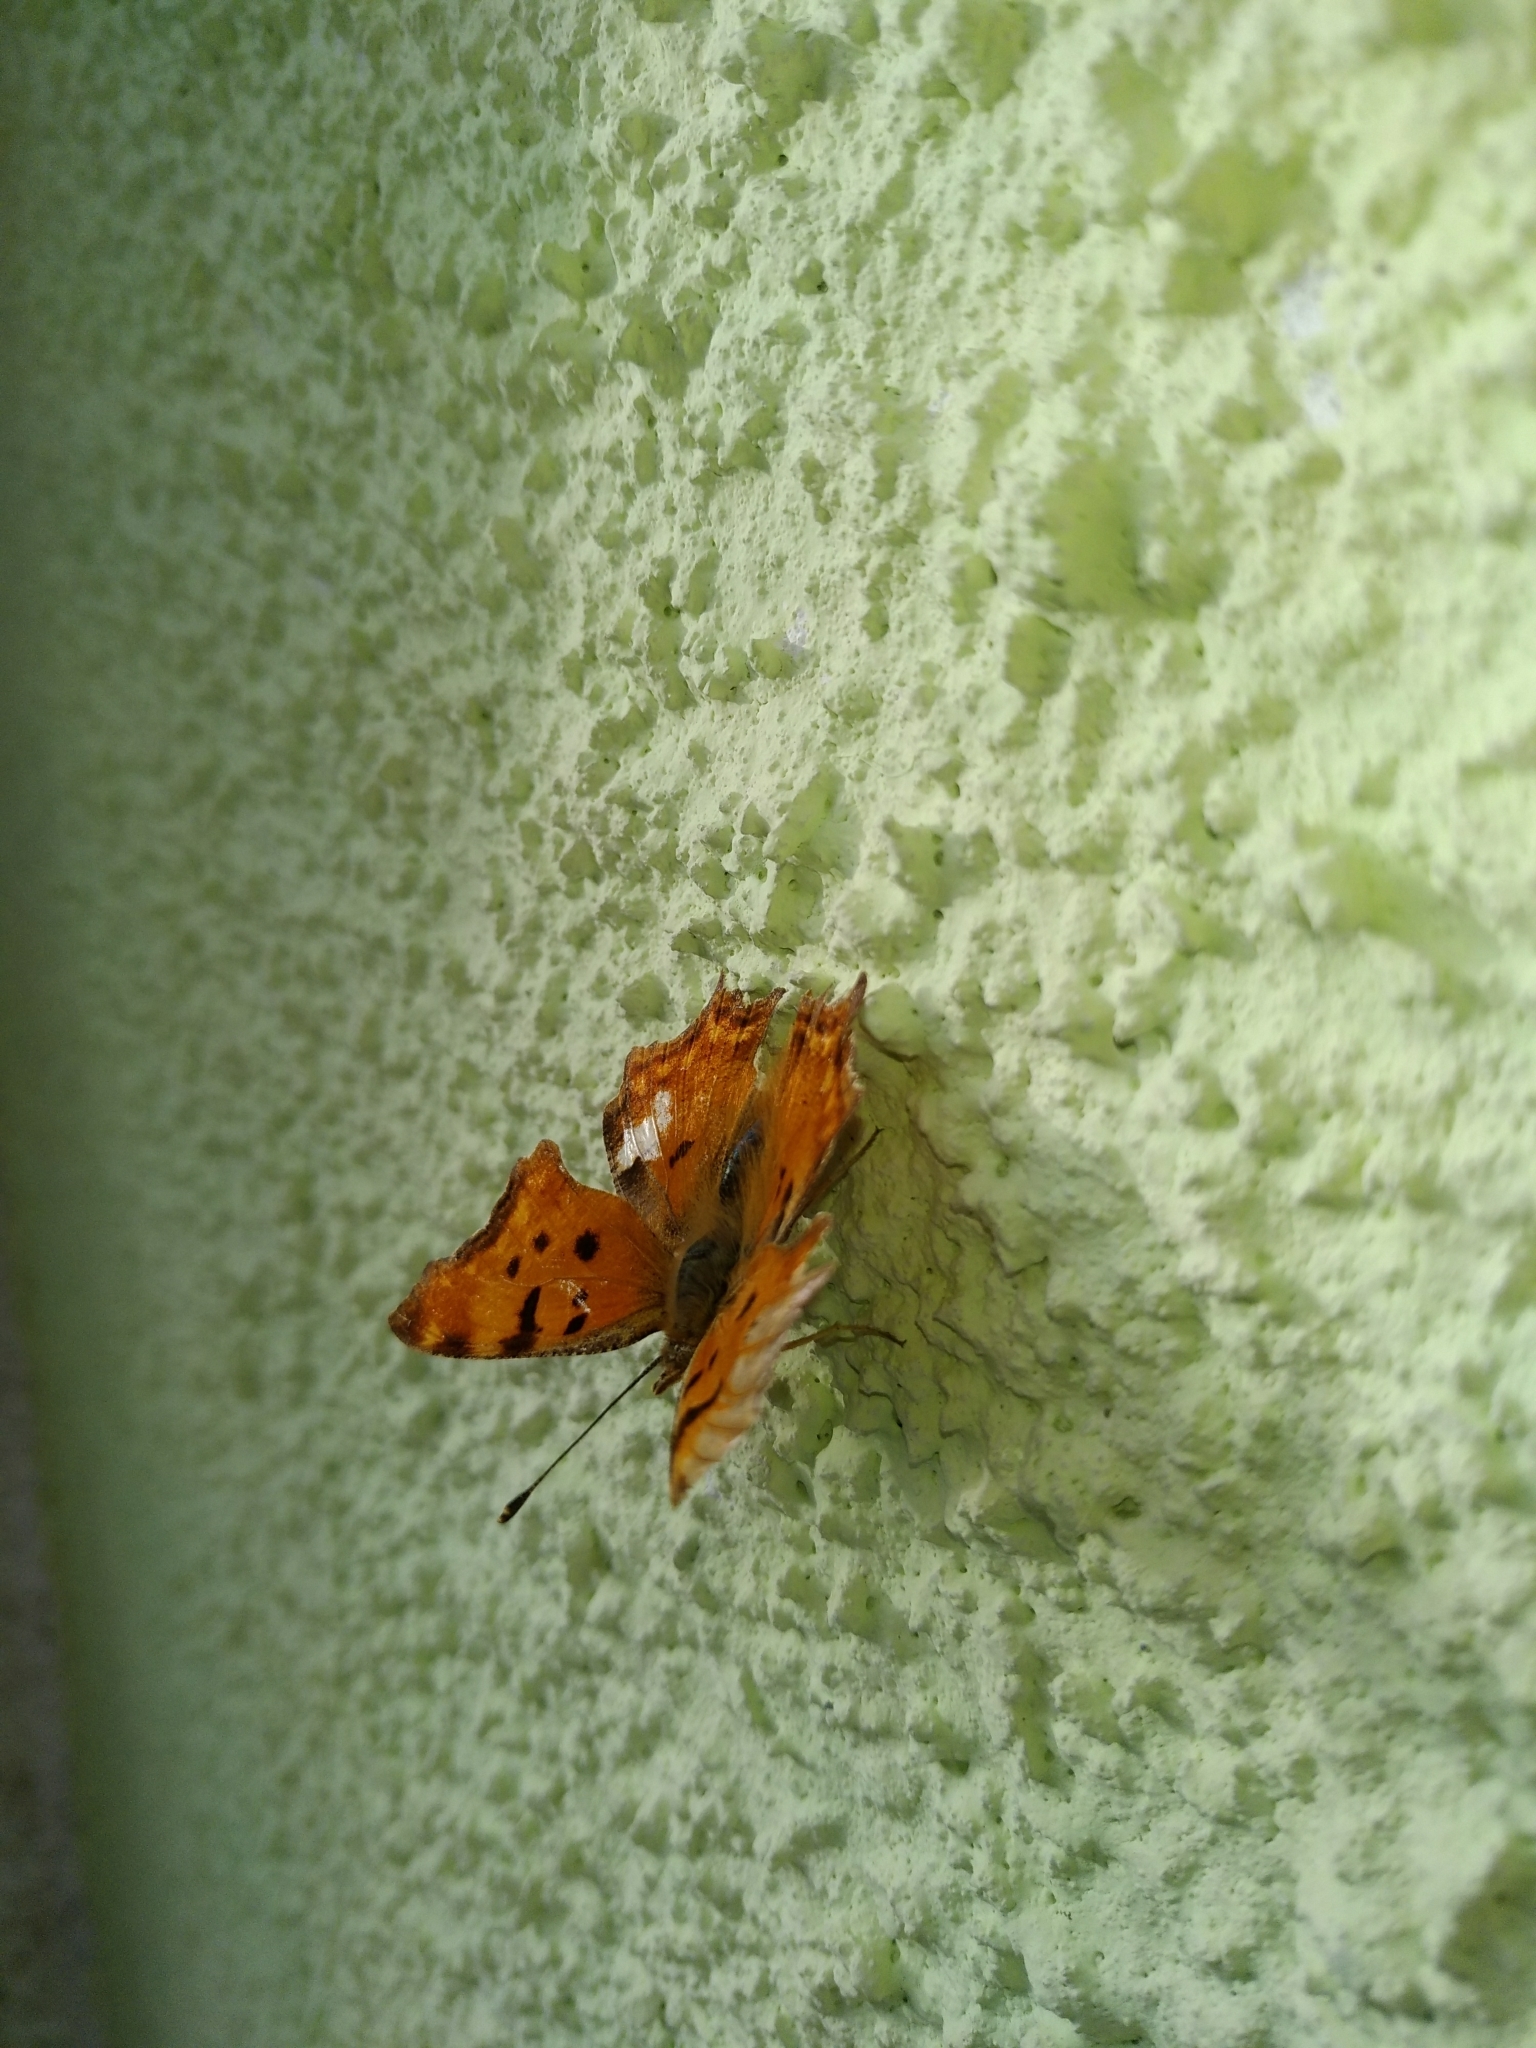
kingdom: Animalia
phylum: Arthropoda
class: Insecta
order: Lepidoptera
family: Nymphalidae
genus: Polygonia
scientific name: Polygonia egea
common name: Southern comma
